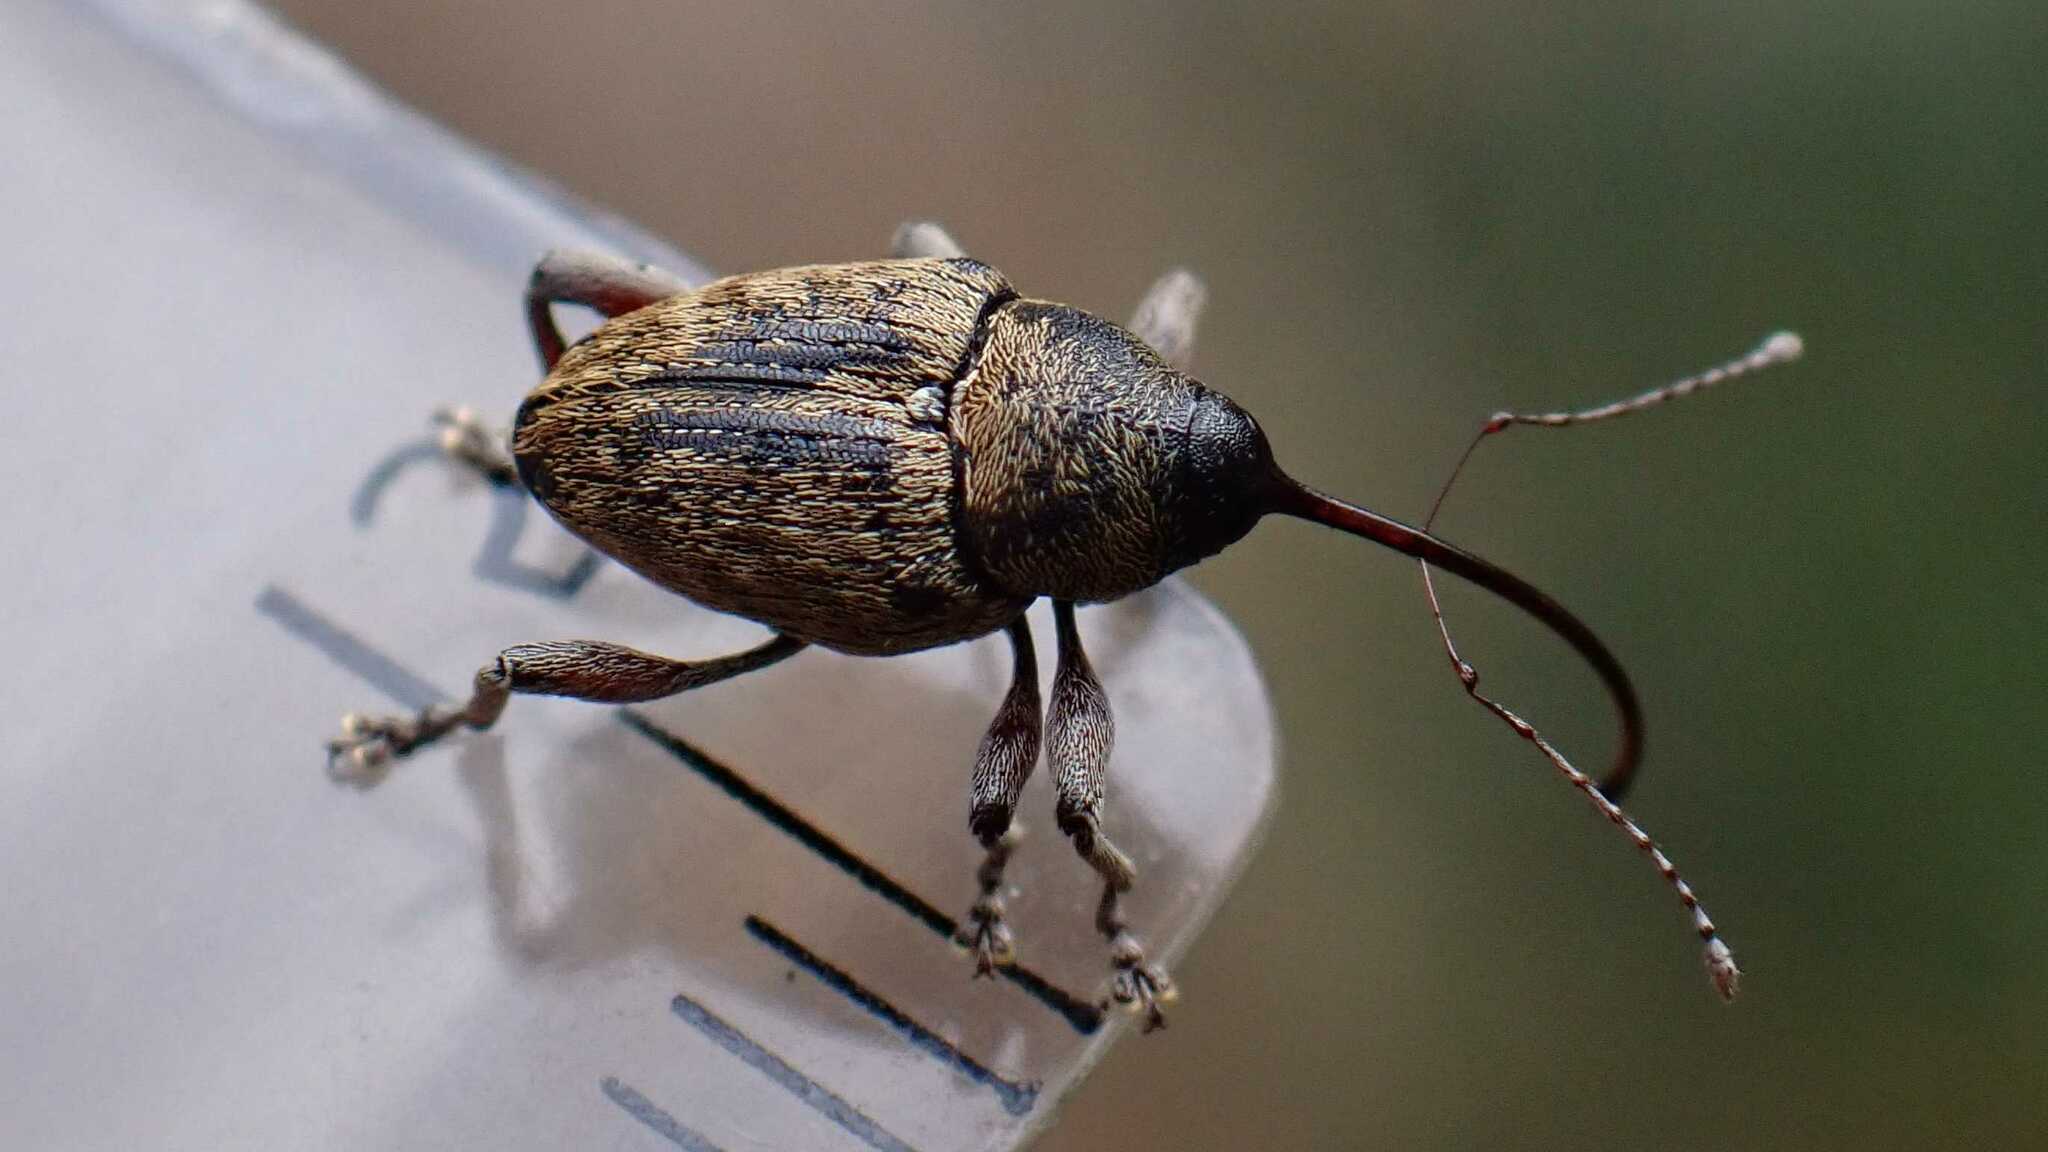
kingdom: Animalia
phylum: Arthropoda
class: Insecta
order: Coleoptera
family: Curculionidae
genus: Curculio
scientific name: Curculio glandium
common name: Acorn weevil
